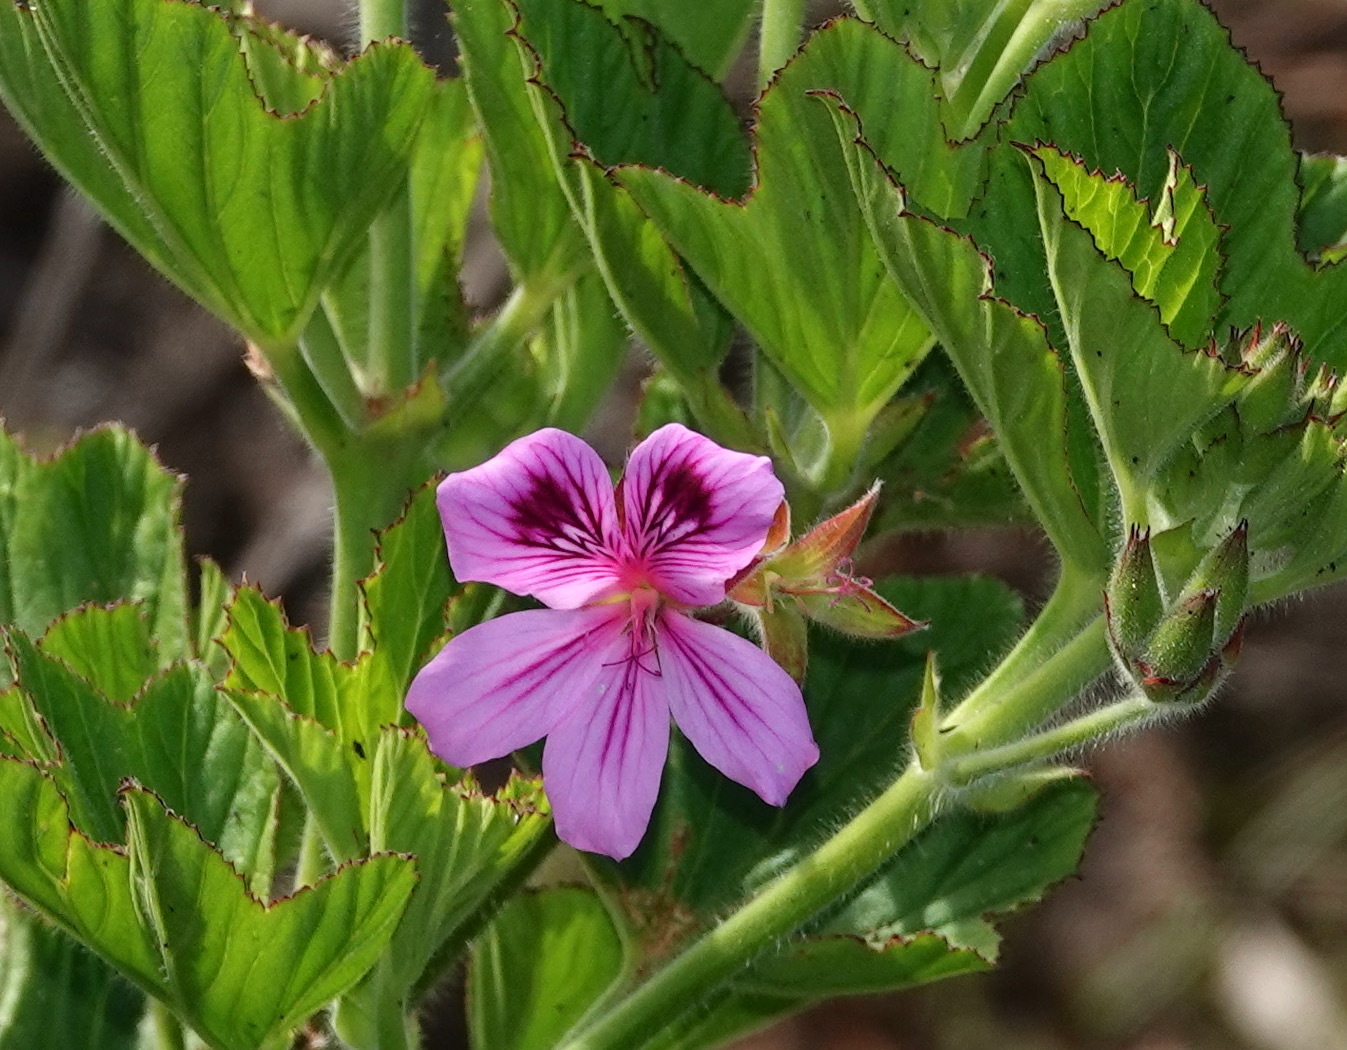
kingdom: Plantae
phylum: Tracheophyta
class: Magnoliopsida
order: Geraniales
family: Geraniaceae
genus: Pelargonium
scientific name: Pelargonium cucullatum
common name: Tree pelargonium
